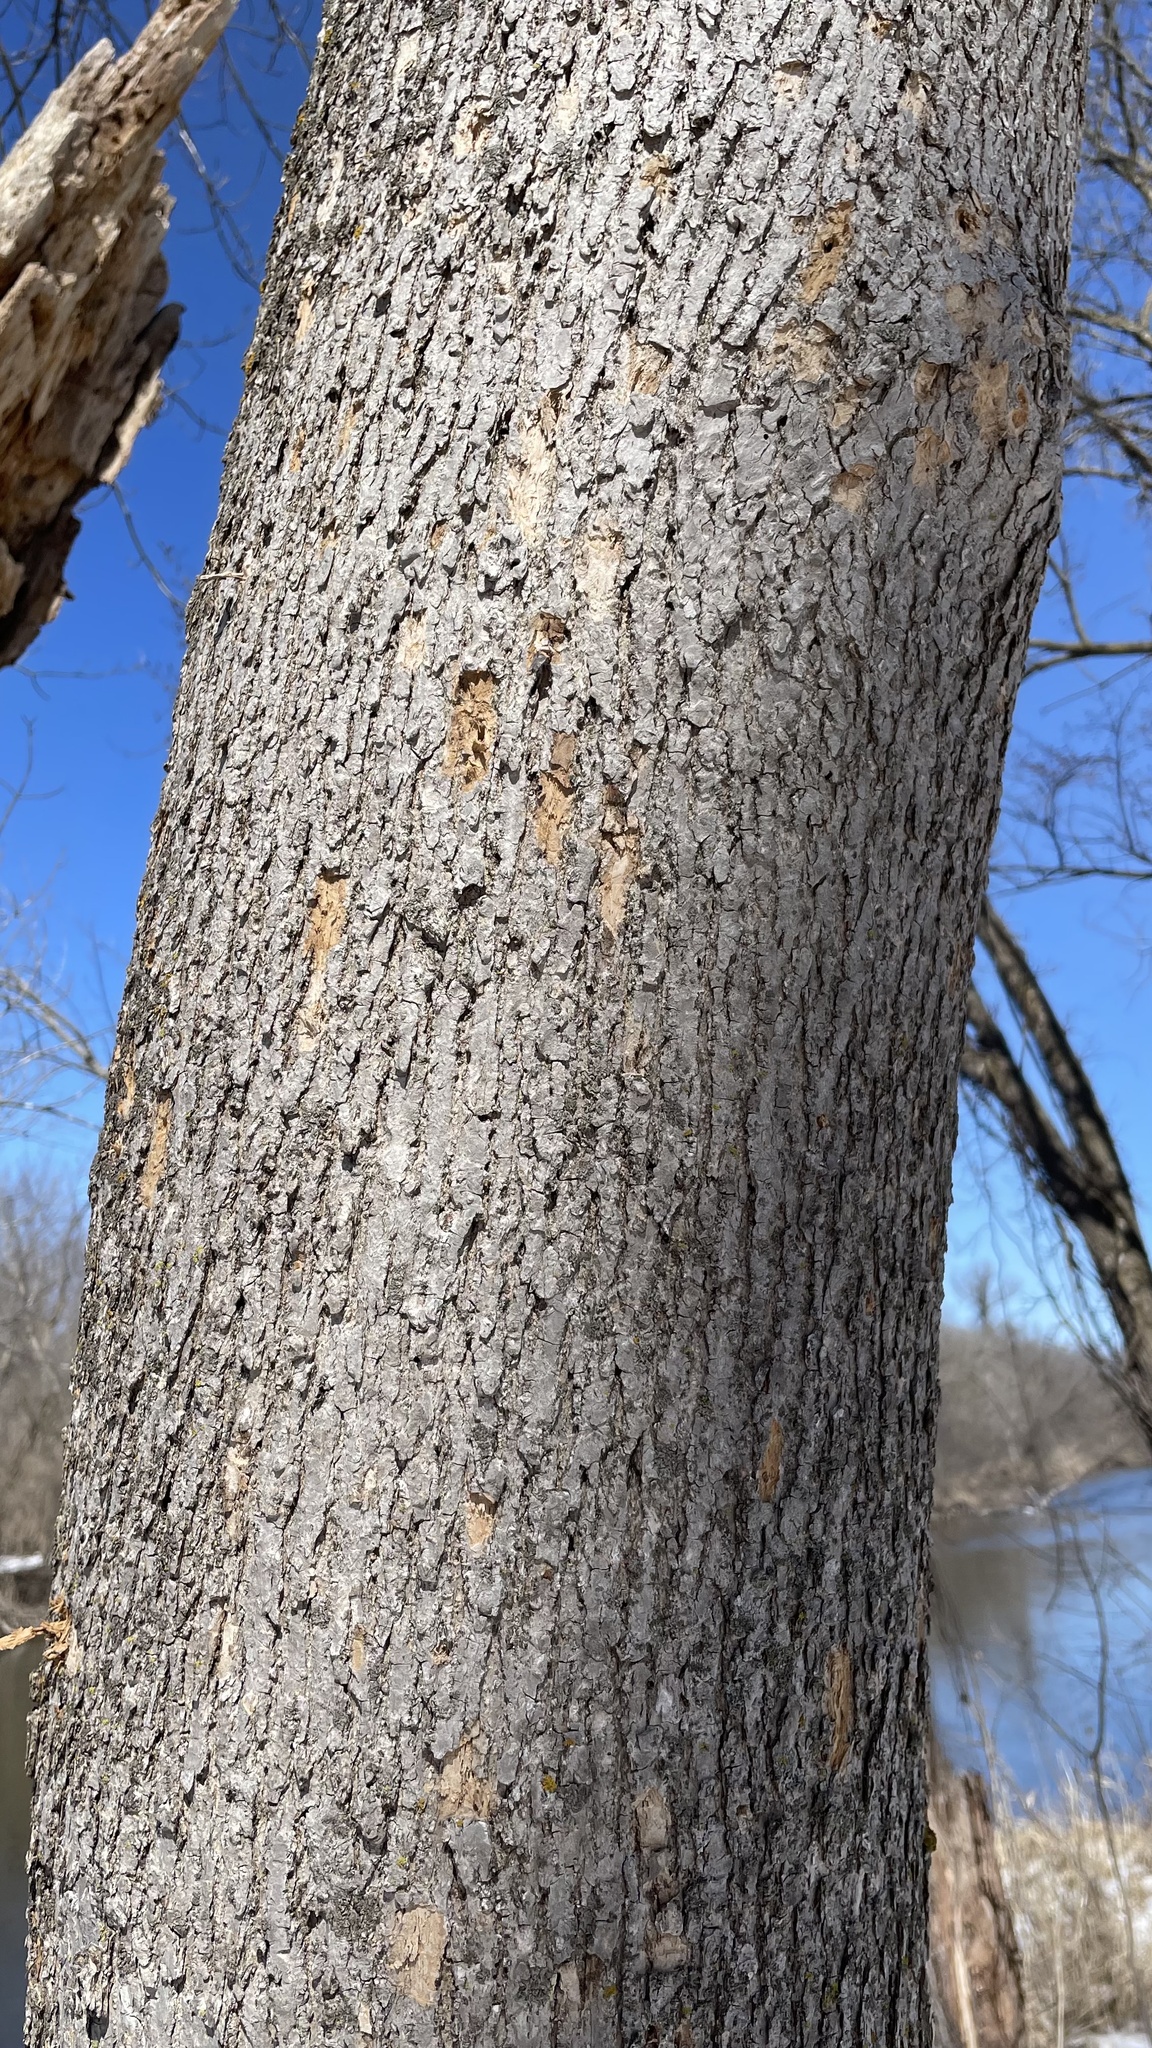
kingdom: Plantae
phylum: Tracheophyta
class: Magnoliopsida
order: Lamiales
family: Oleaceae
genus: Fraxinus
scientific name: Fraxinus nigra
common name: Black ash
